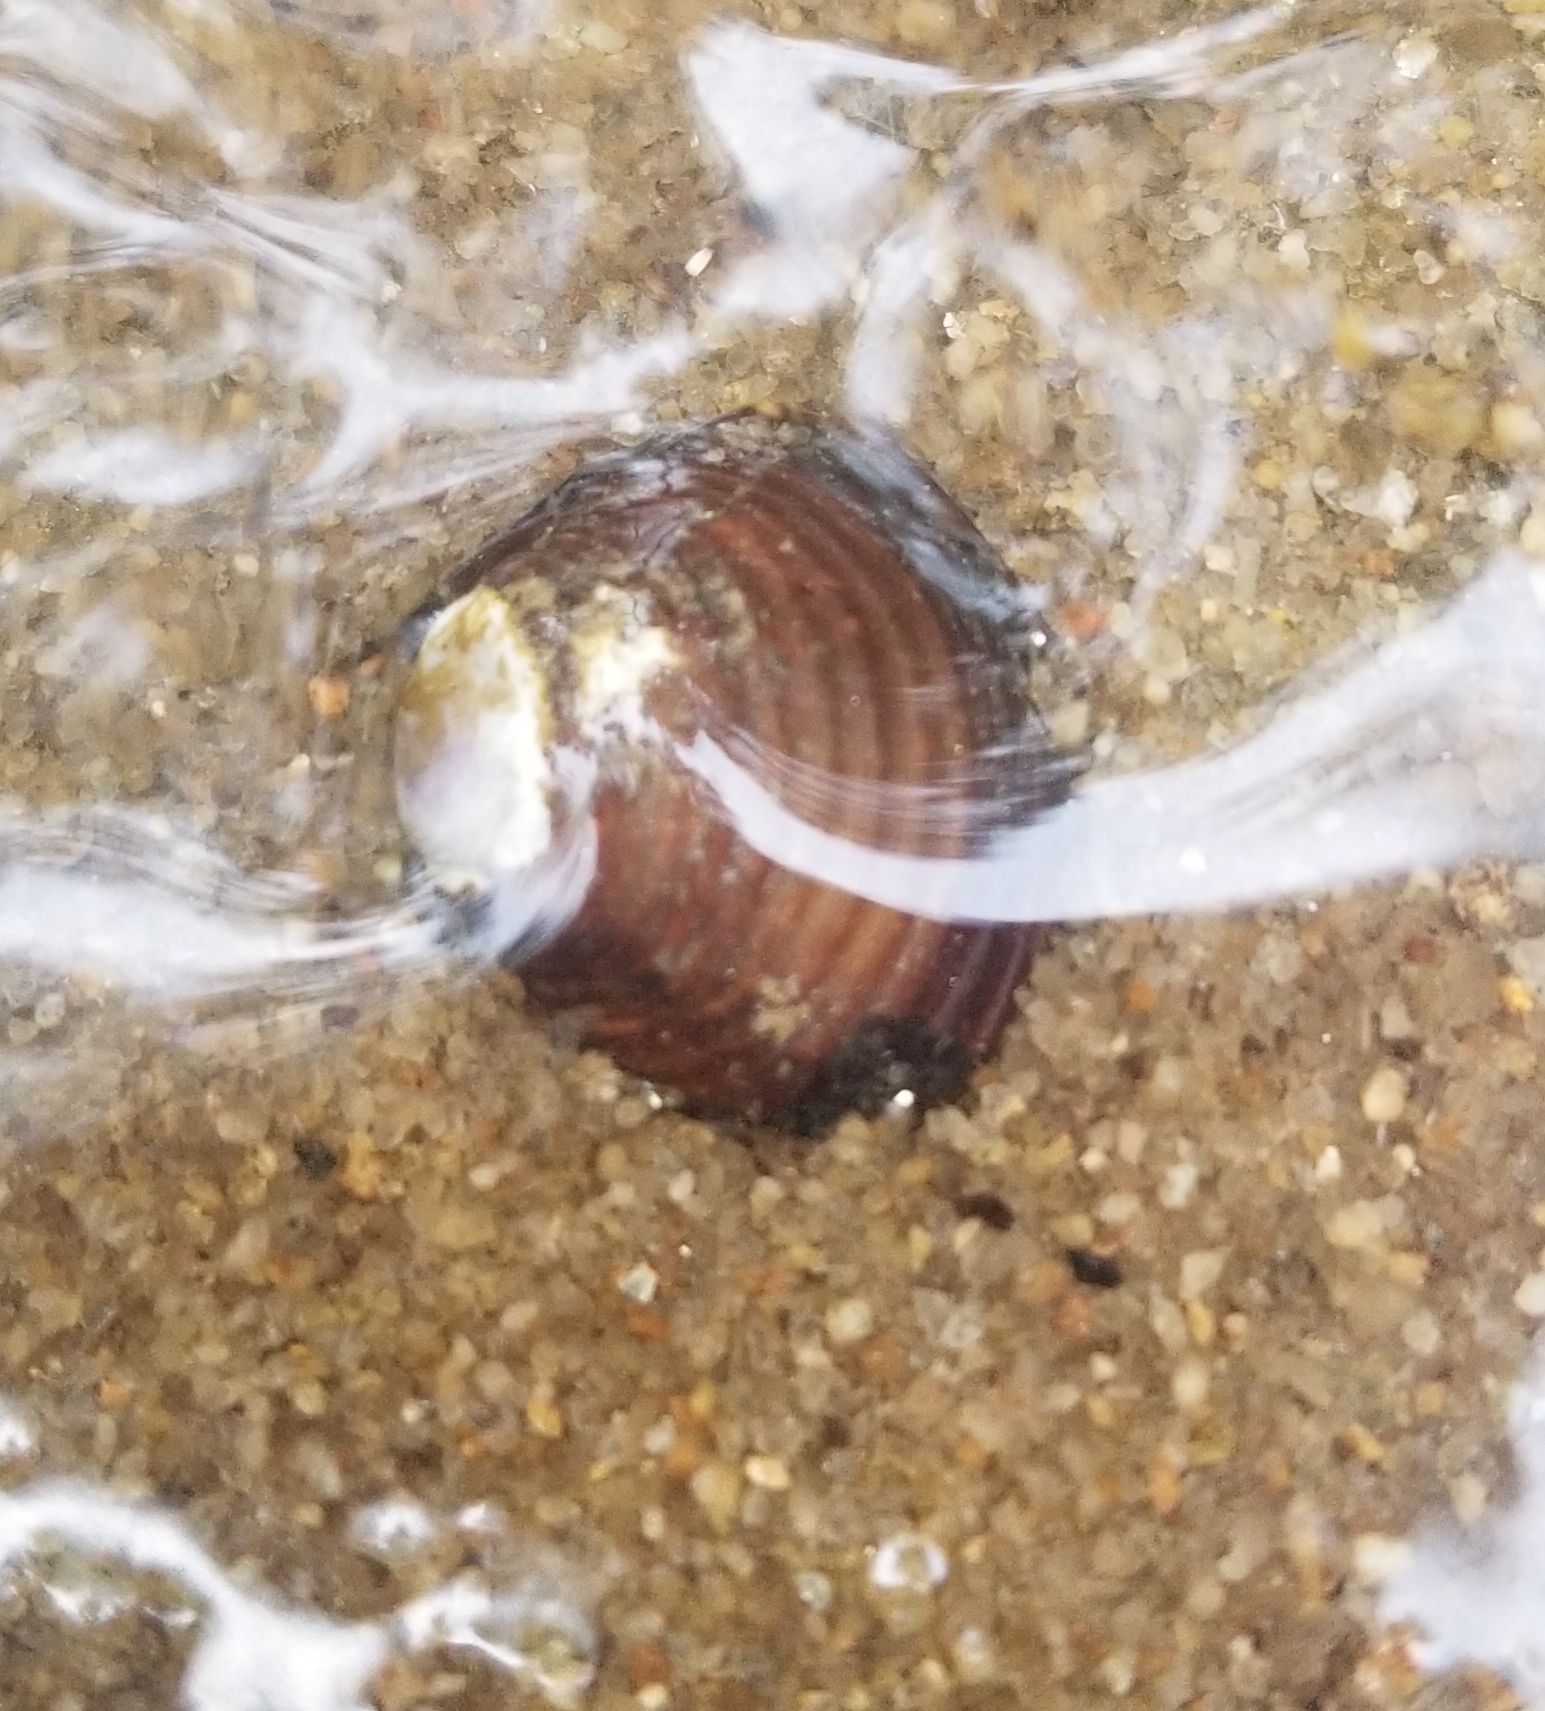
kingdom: Animalia
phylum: Mollusca
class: Bivalvia
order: Venerida
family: Cyrenidae
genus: Corbicula
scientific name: Corbicula fluminea
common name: Asian clam
